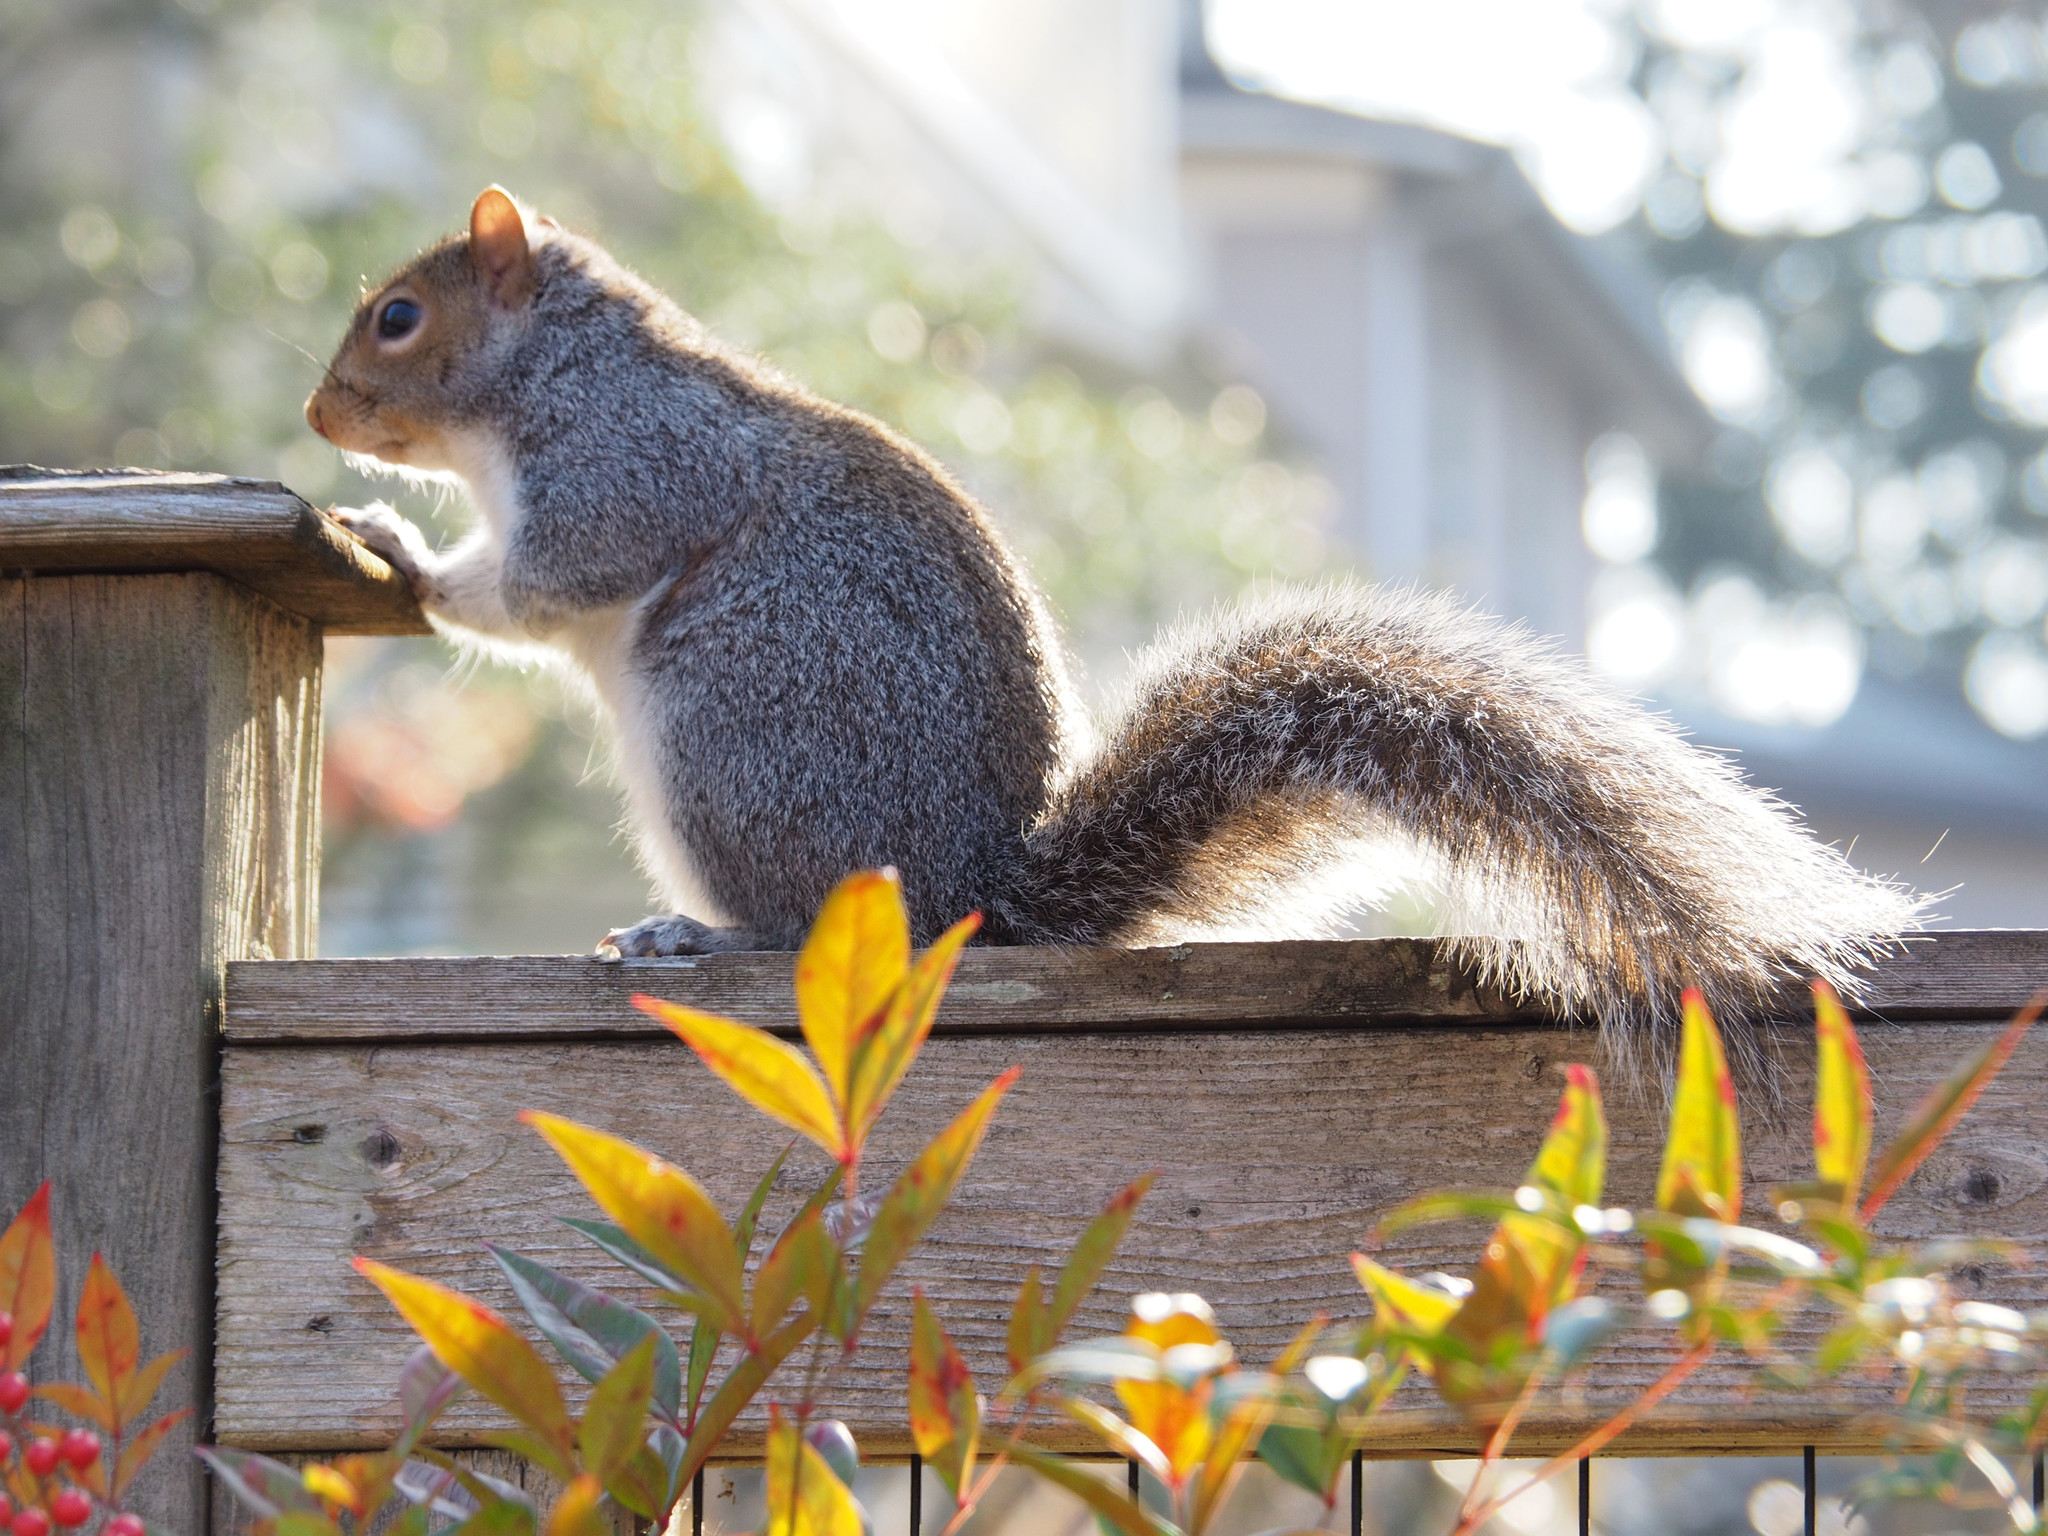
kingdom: Animalia
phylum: Chordata
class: Mammalia
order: Rodentia
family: Sciuridae
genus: Sciurus
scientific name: Sciurus carolinensis
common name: Eastern gray squirrel
